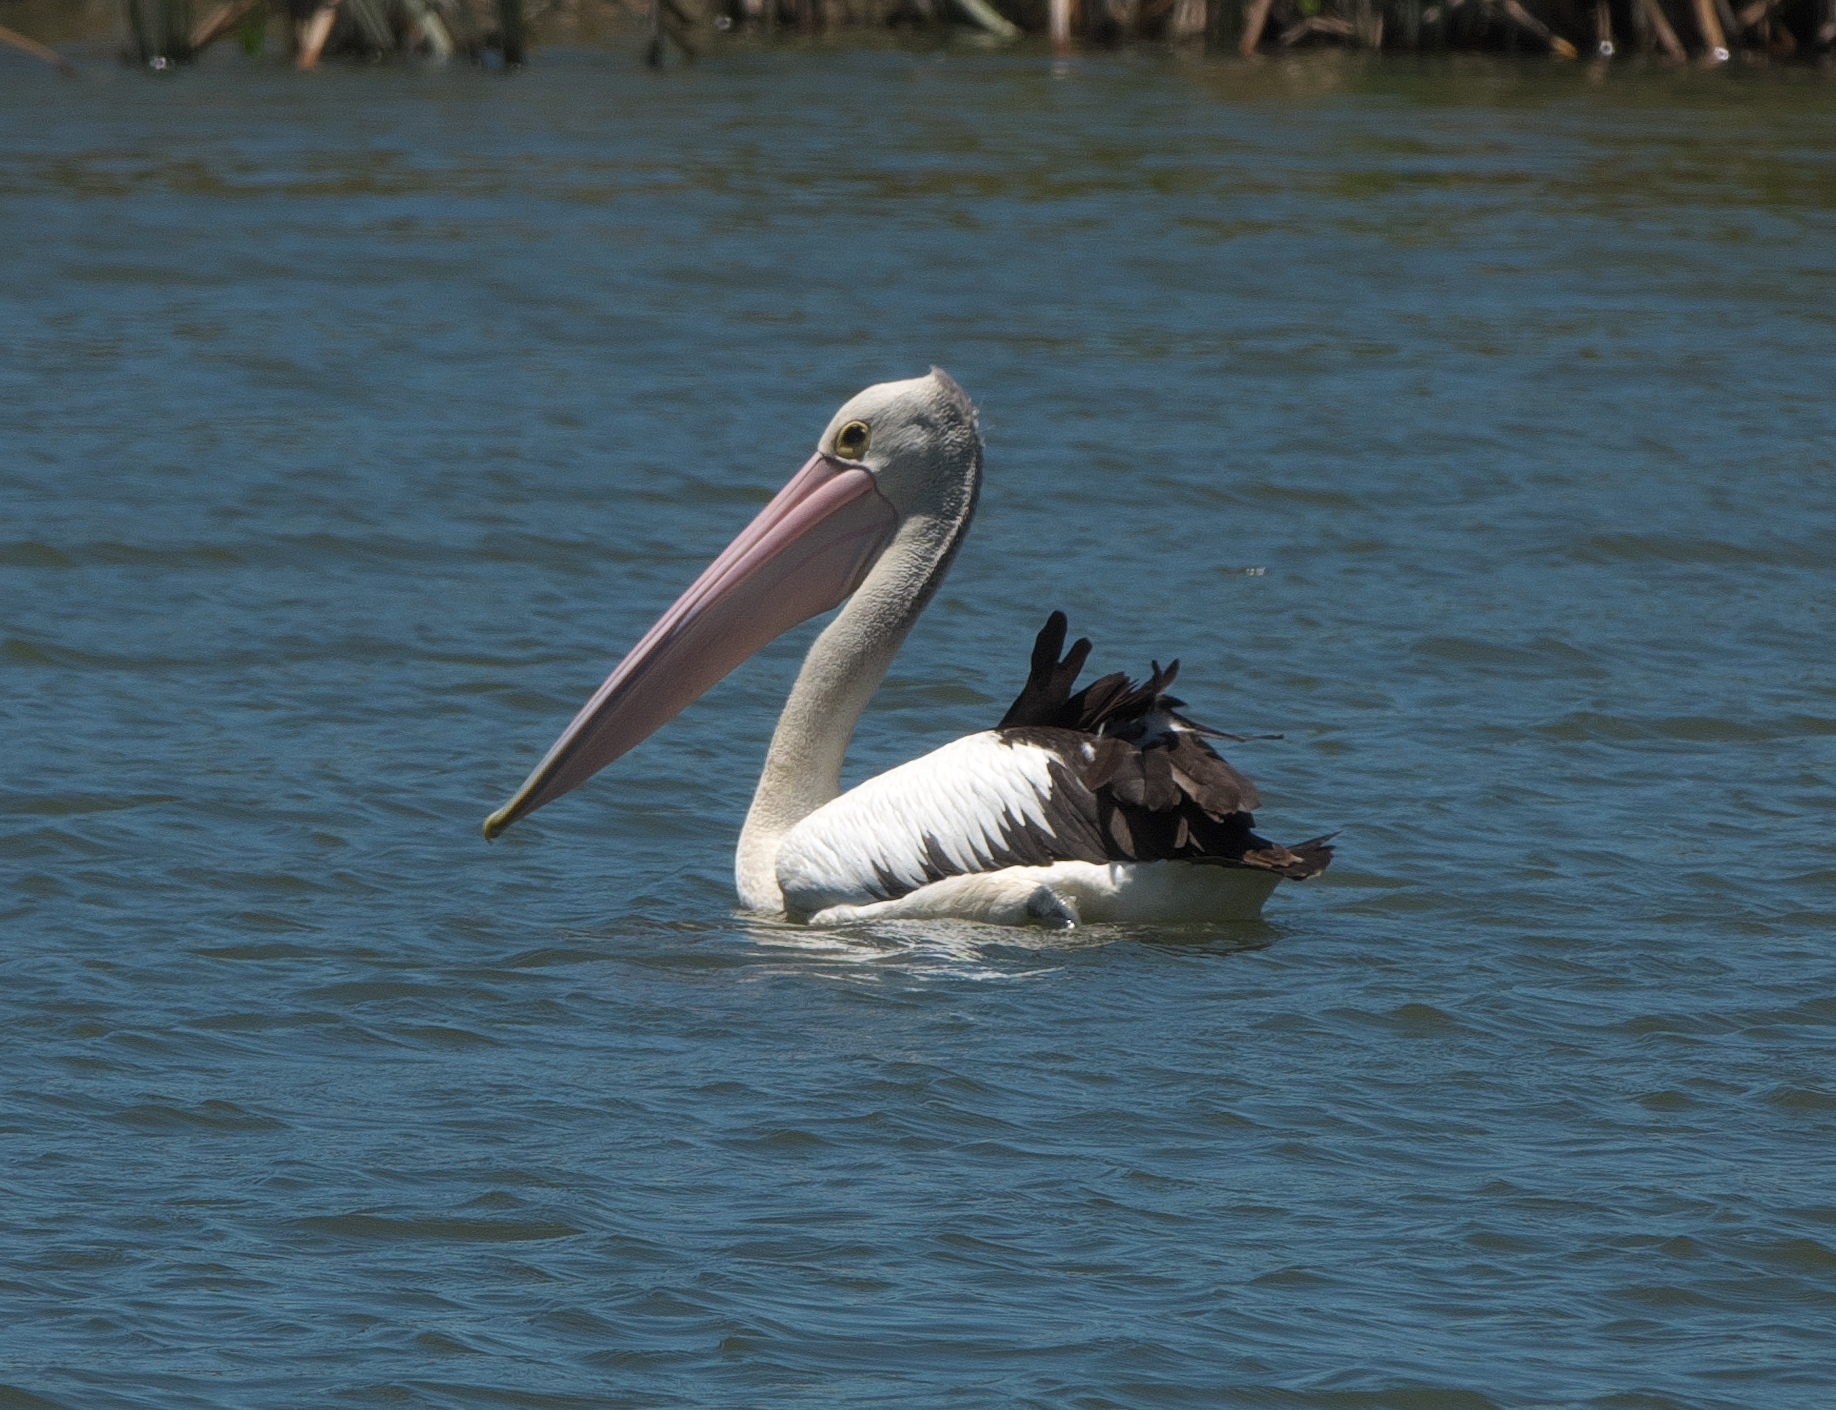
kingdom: Animalia
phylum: Chordata
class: Aves
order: Pelecaniformes
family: Pelecanidae
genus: Pelecanus
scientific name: Pelecanus conspicillatus
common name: Australian pelican
